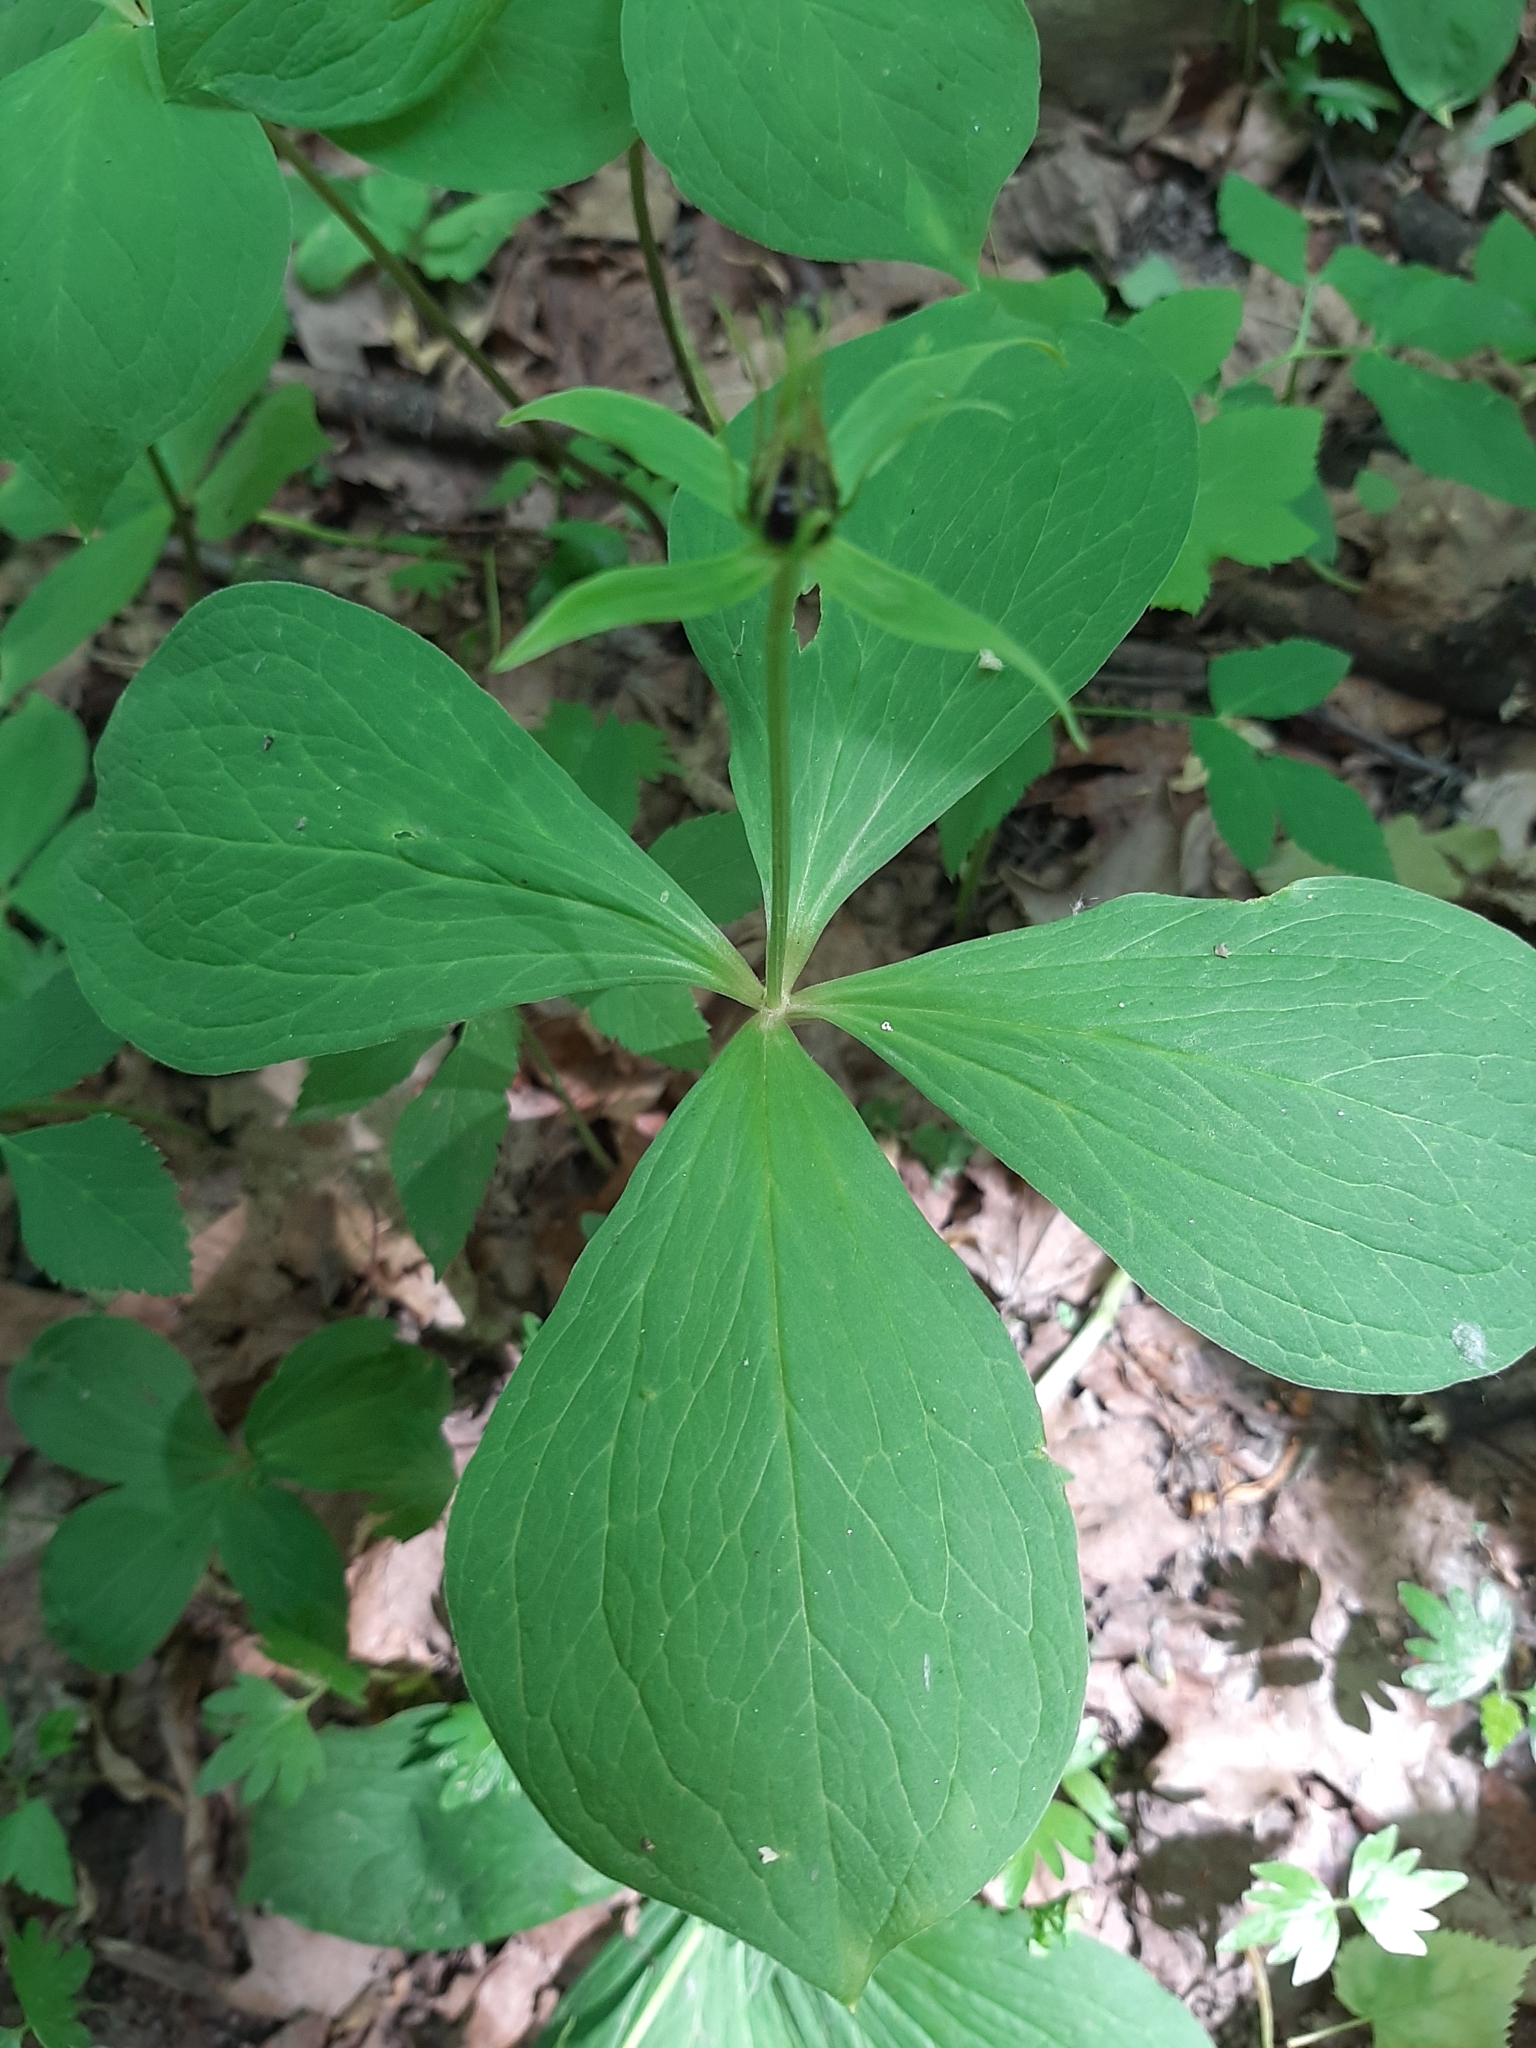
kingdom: Plantae
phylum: Tracheophyta
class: Liliopsida
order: Liliales
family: Melanthiaceae
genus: Paris
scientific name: Paris quadrifolia
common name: Herb-paris
